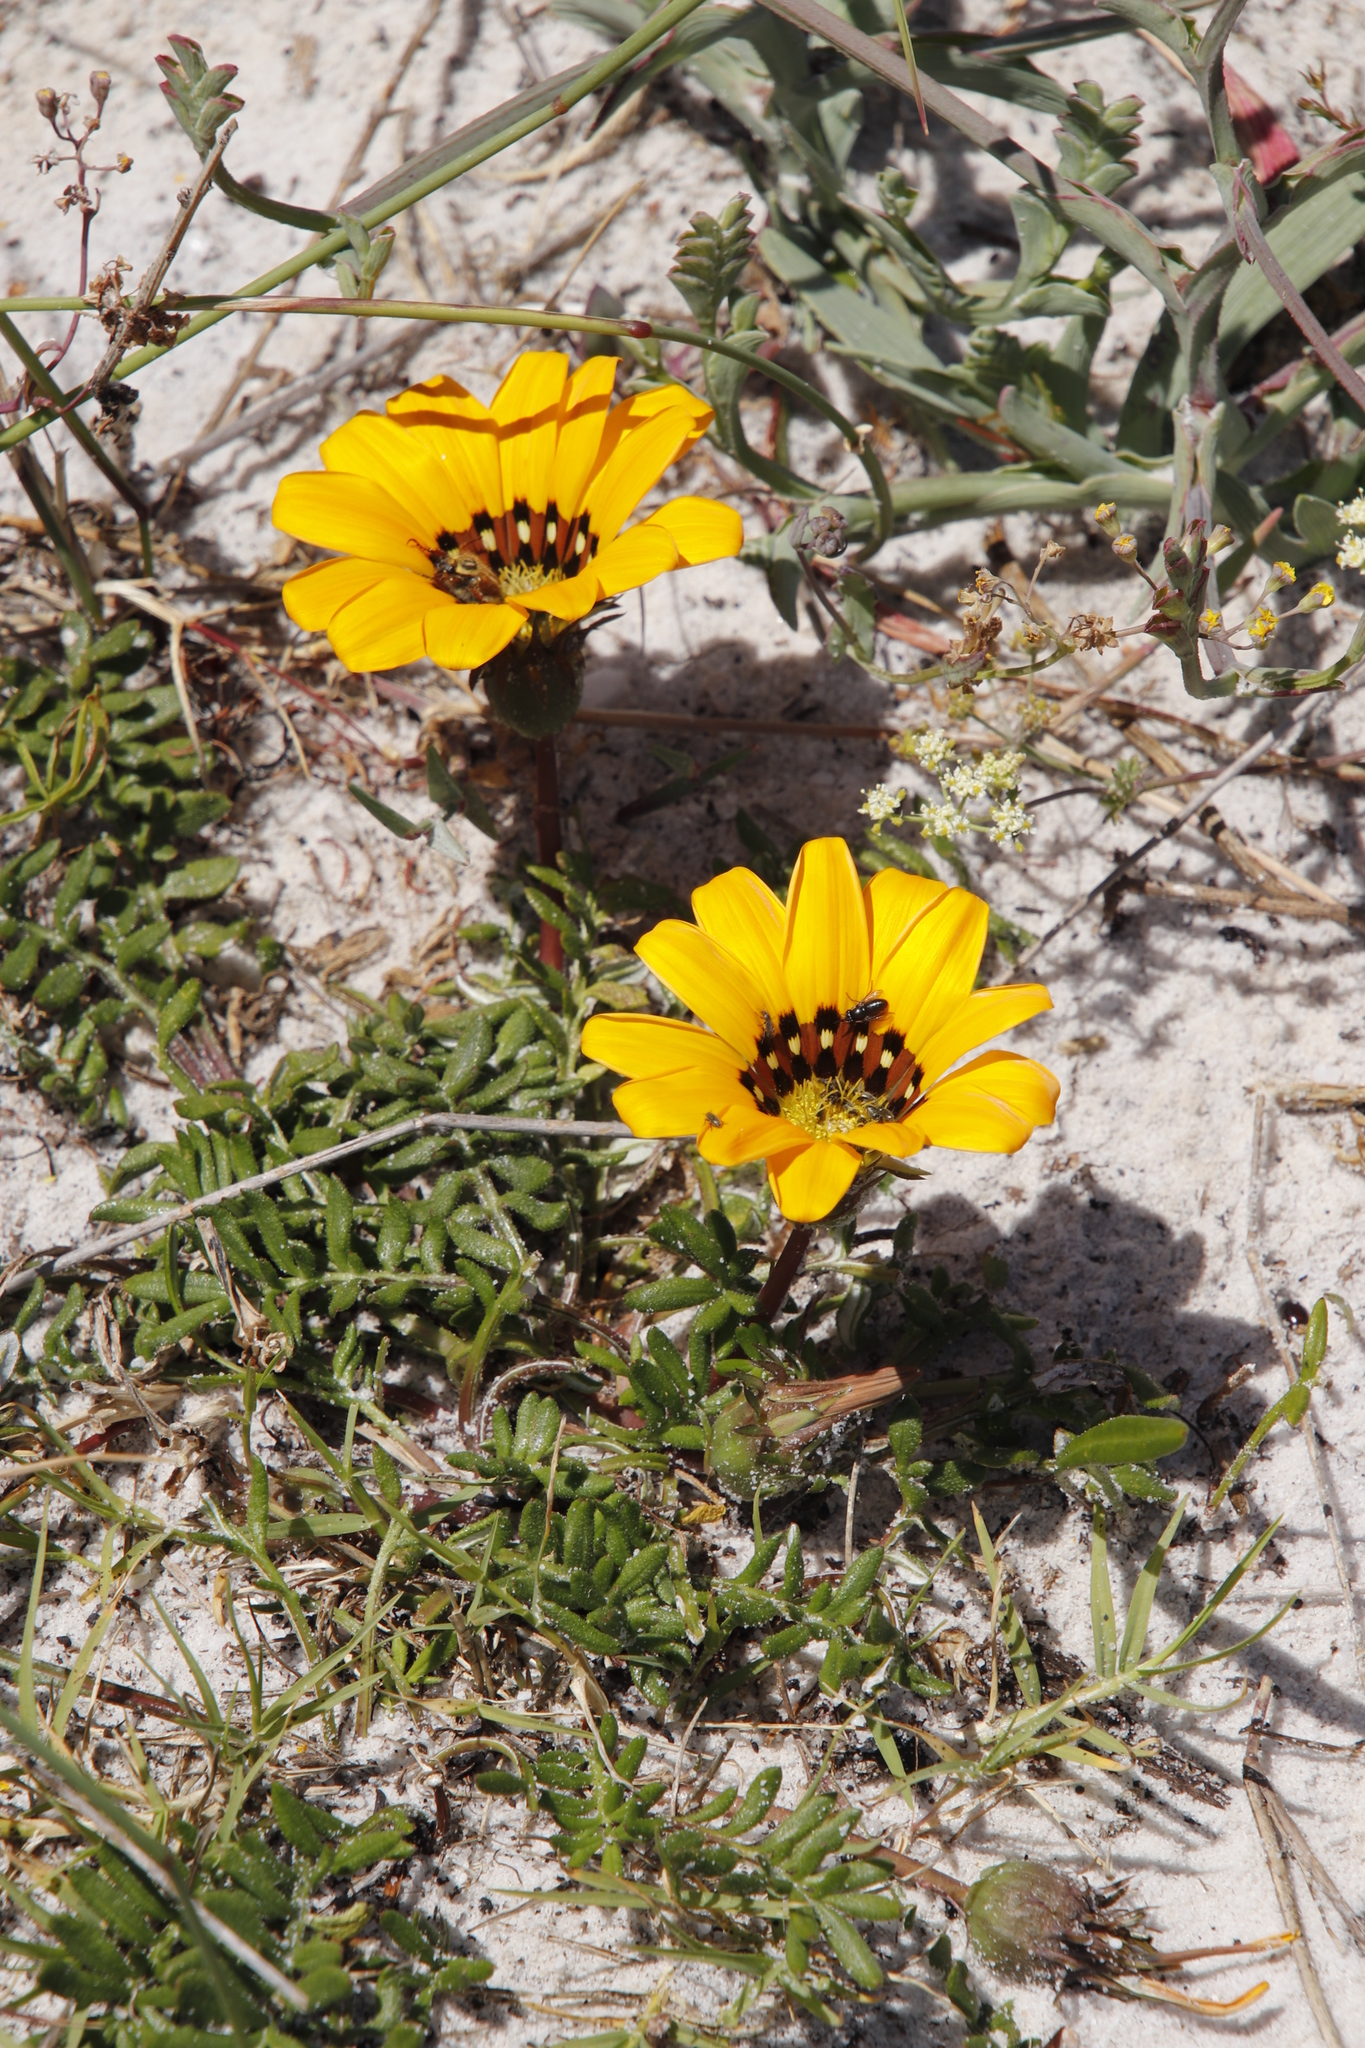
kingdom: Plantae
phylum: Tracheophyta
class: Magnoliopsida
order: Asterales
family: Asteraceae
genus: Gazania
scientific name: Gazania pectinata
